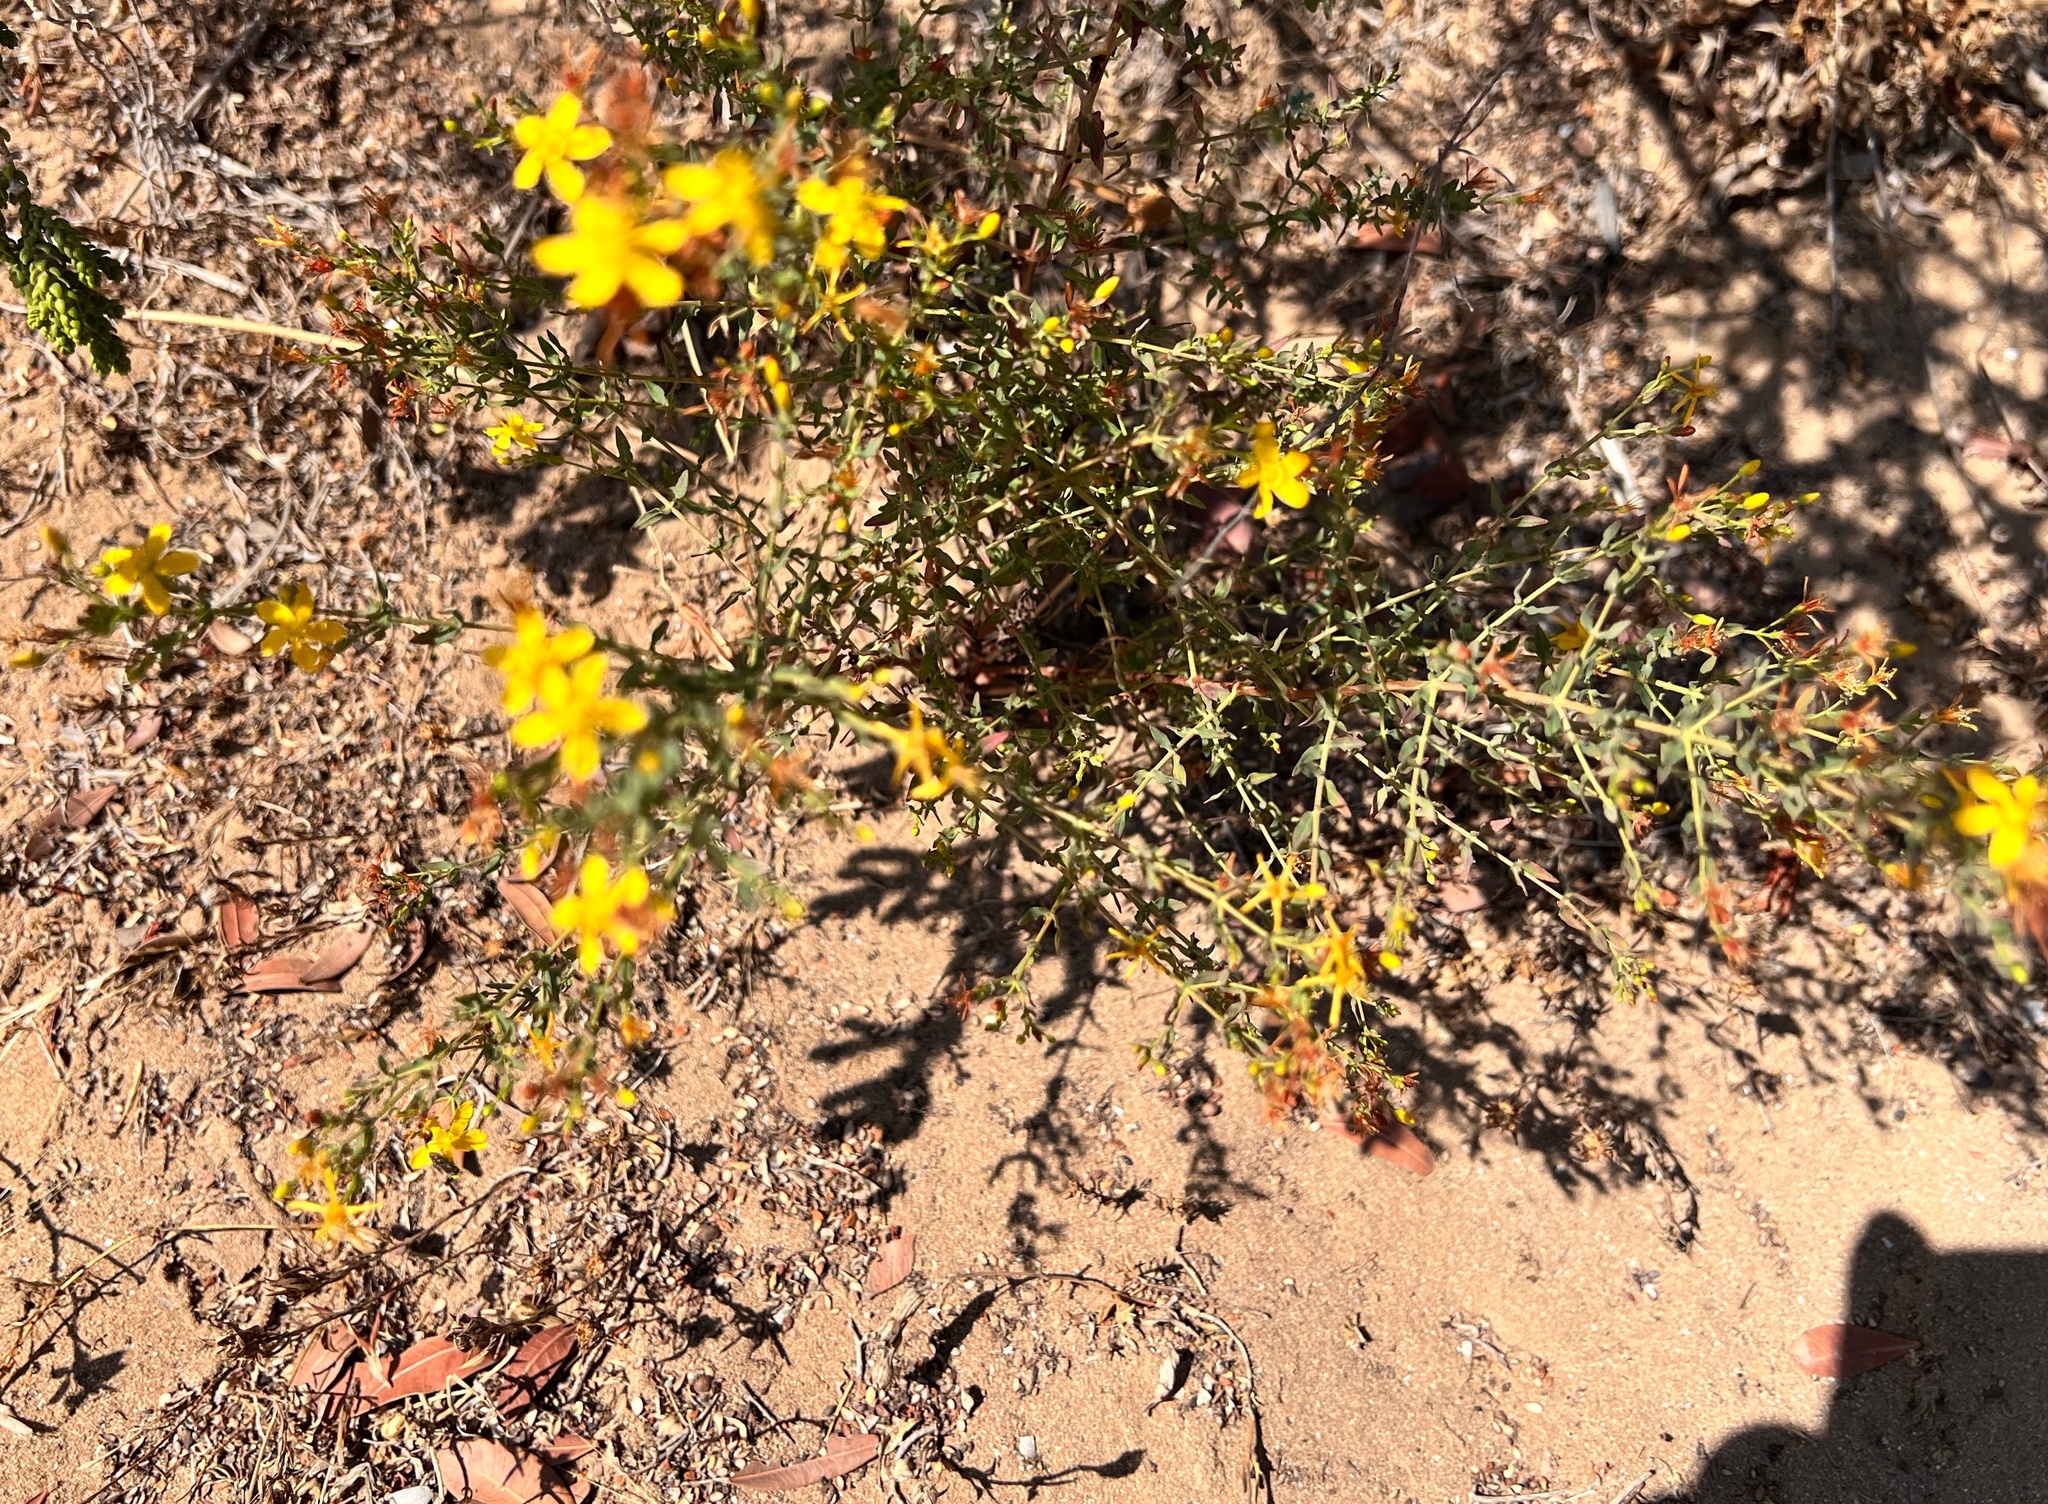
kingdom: Plantae
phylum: Tracheophyta
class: Magnoliopsida
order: Malpighiales
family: Hypericaceae
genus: Hypericum
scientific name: Hypericum triquetrifolium
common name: Tangled hypericum
